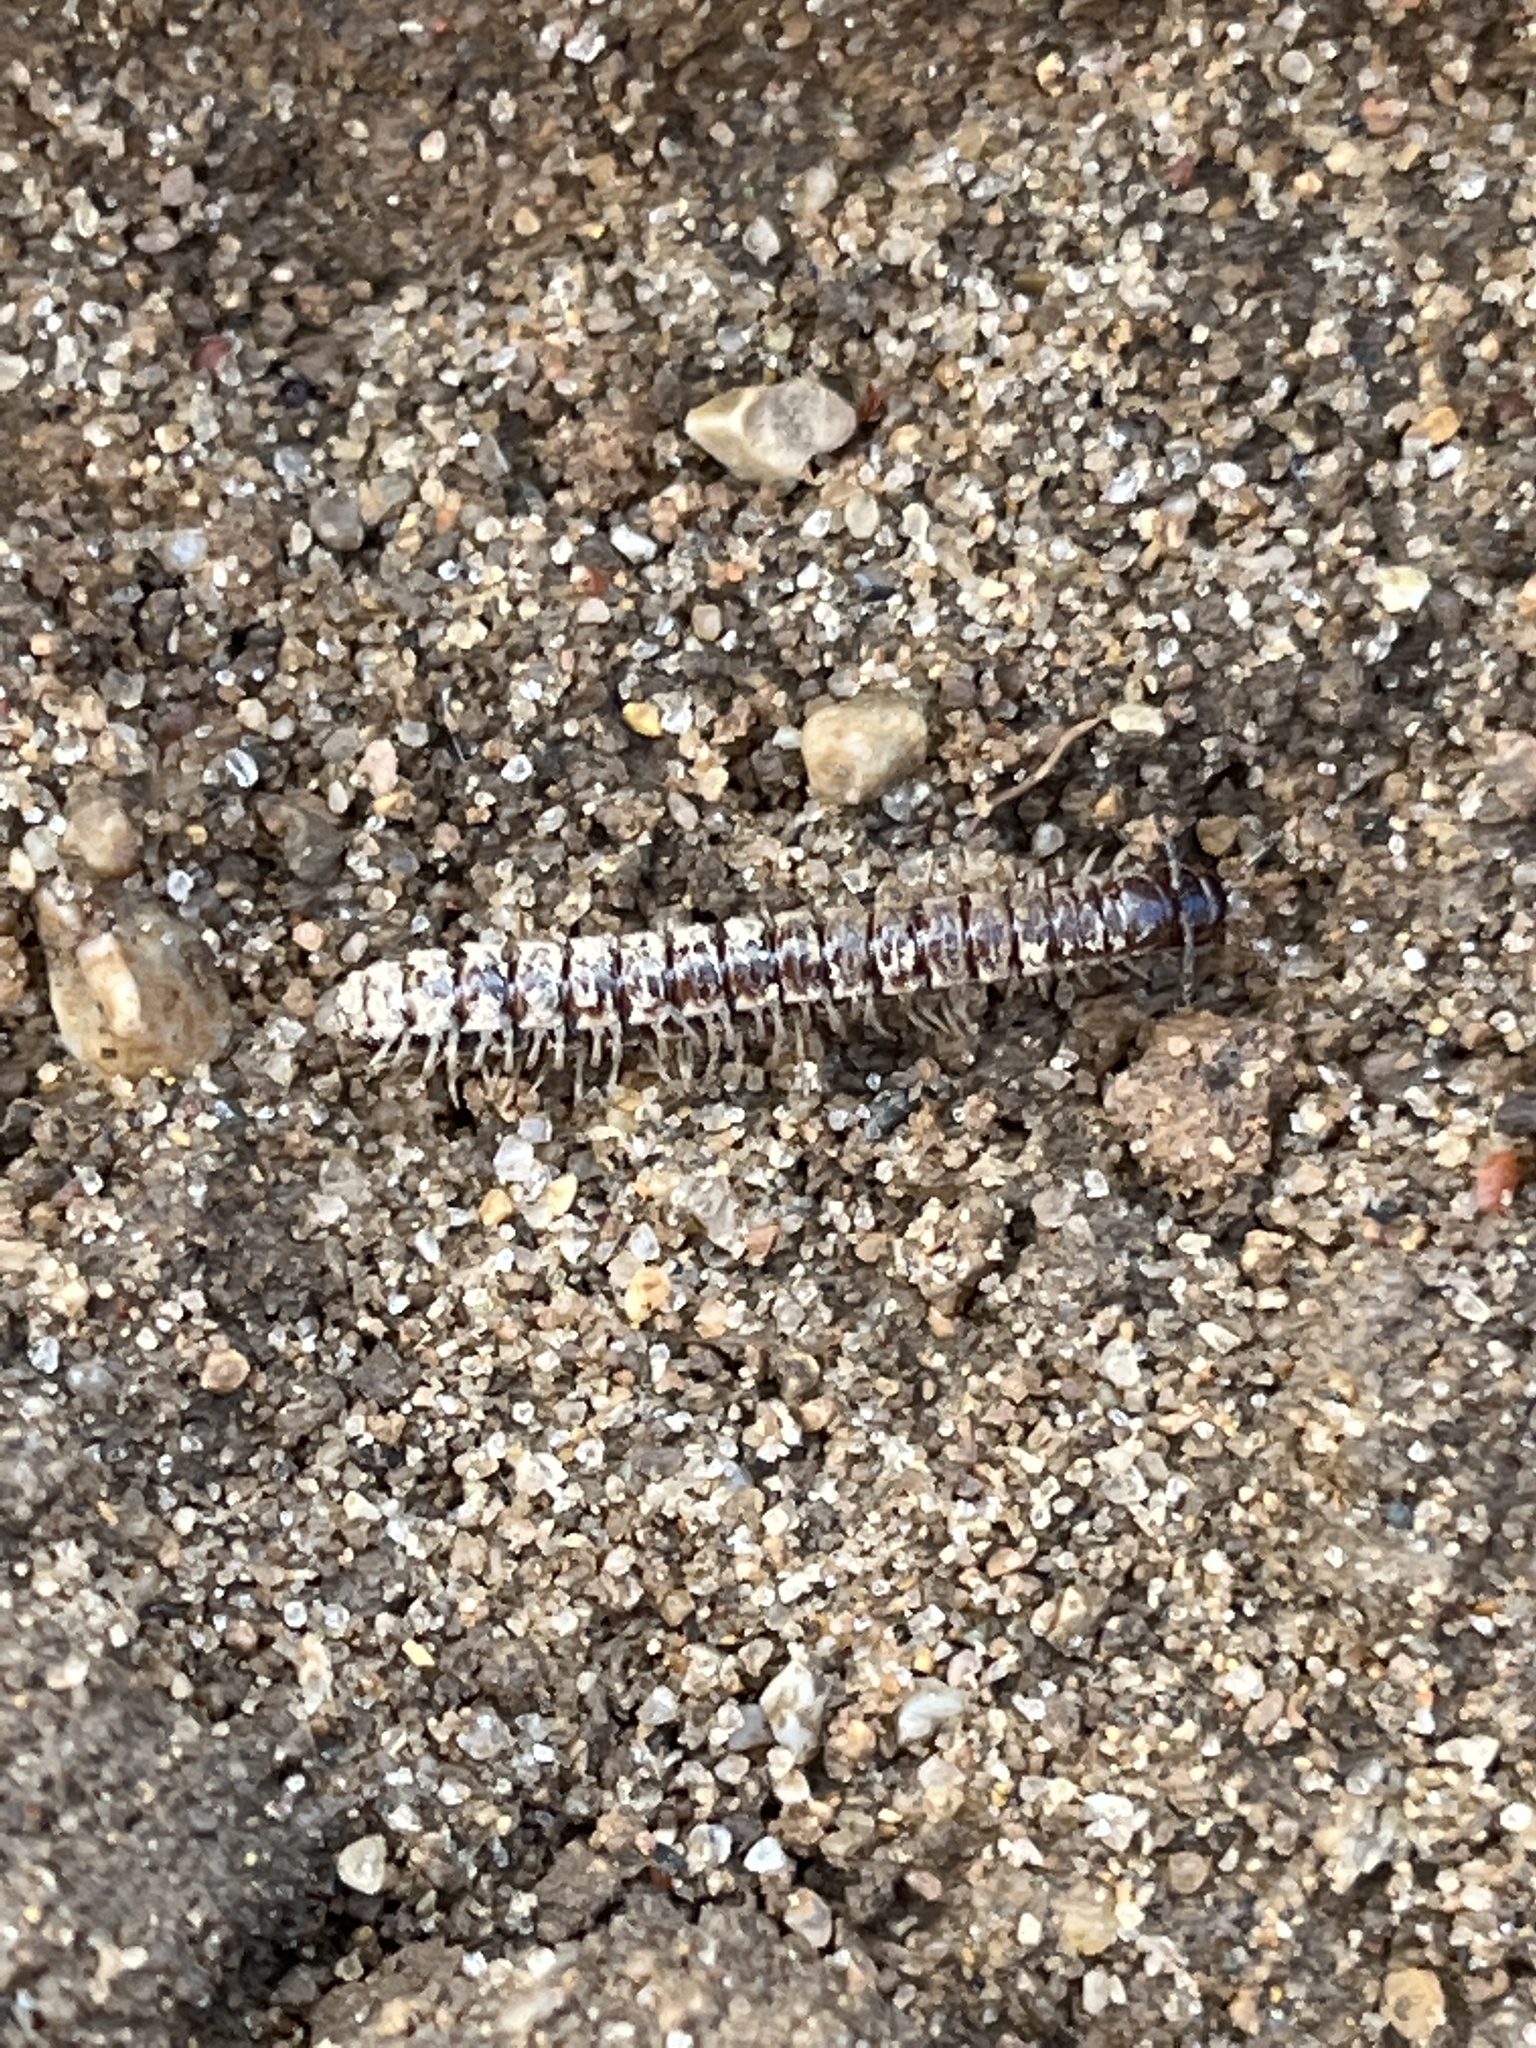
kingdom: Animalia
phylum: Arthropoda
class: Diplopoda
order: Polydesmida
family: Paradoxosomatidae
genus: Oxidus
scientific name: Oxidus gracilis
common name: Greenhouse millipede
